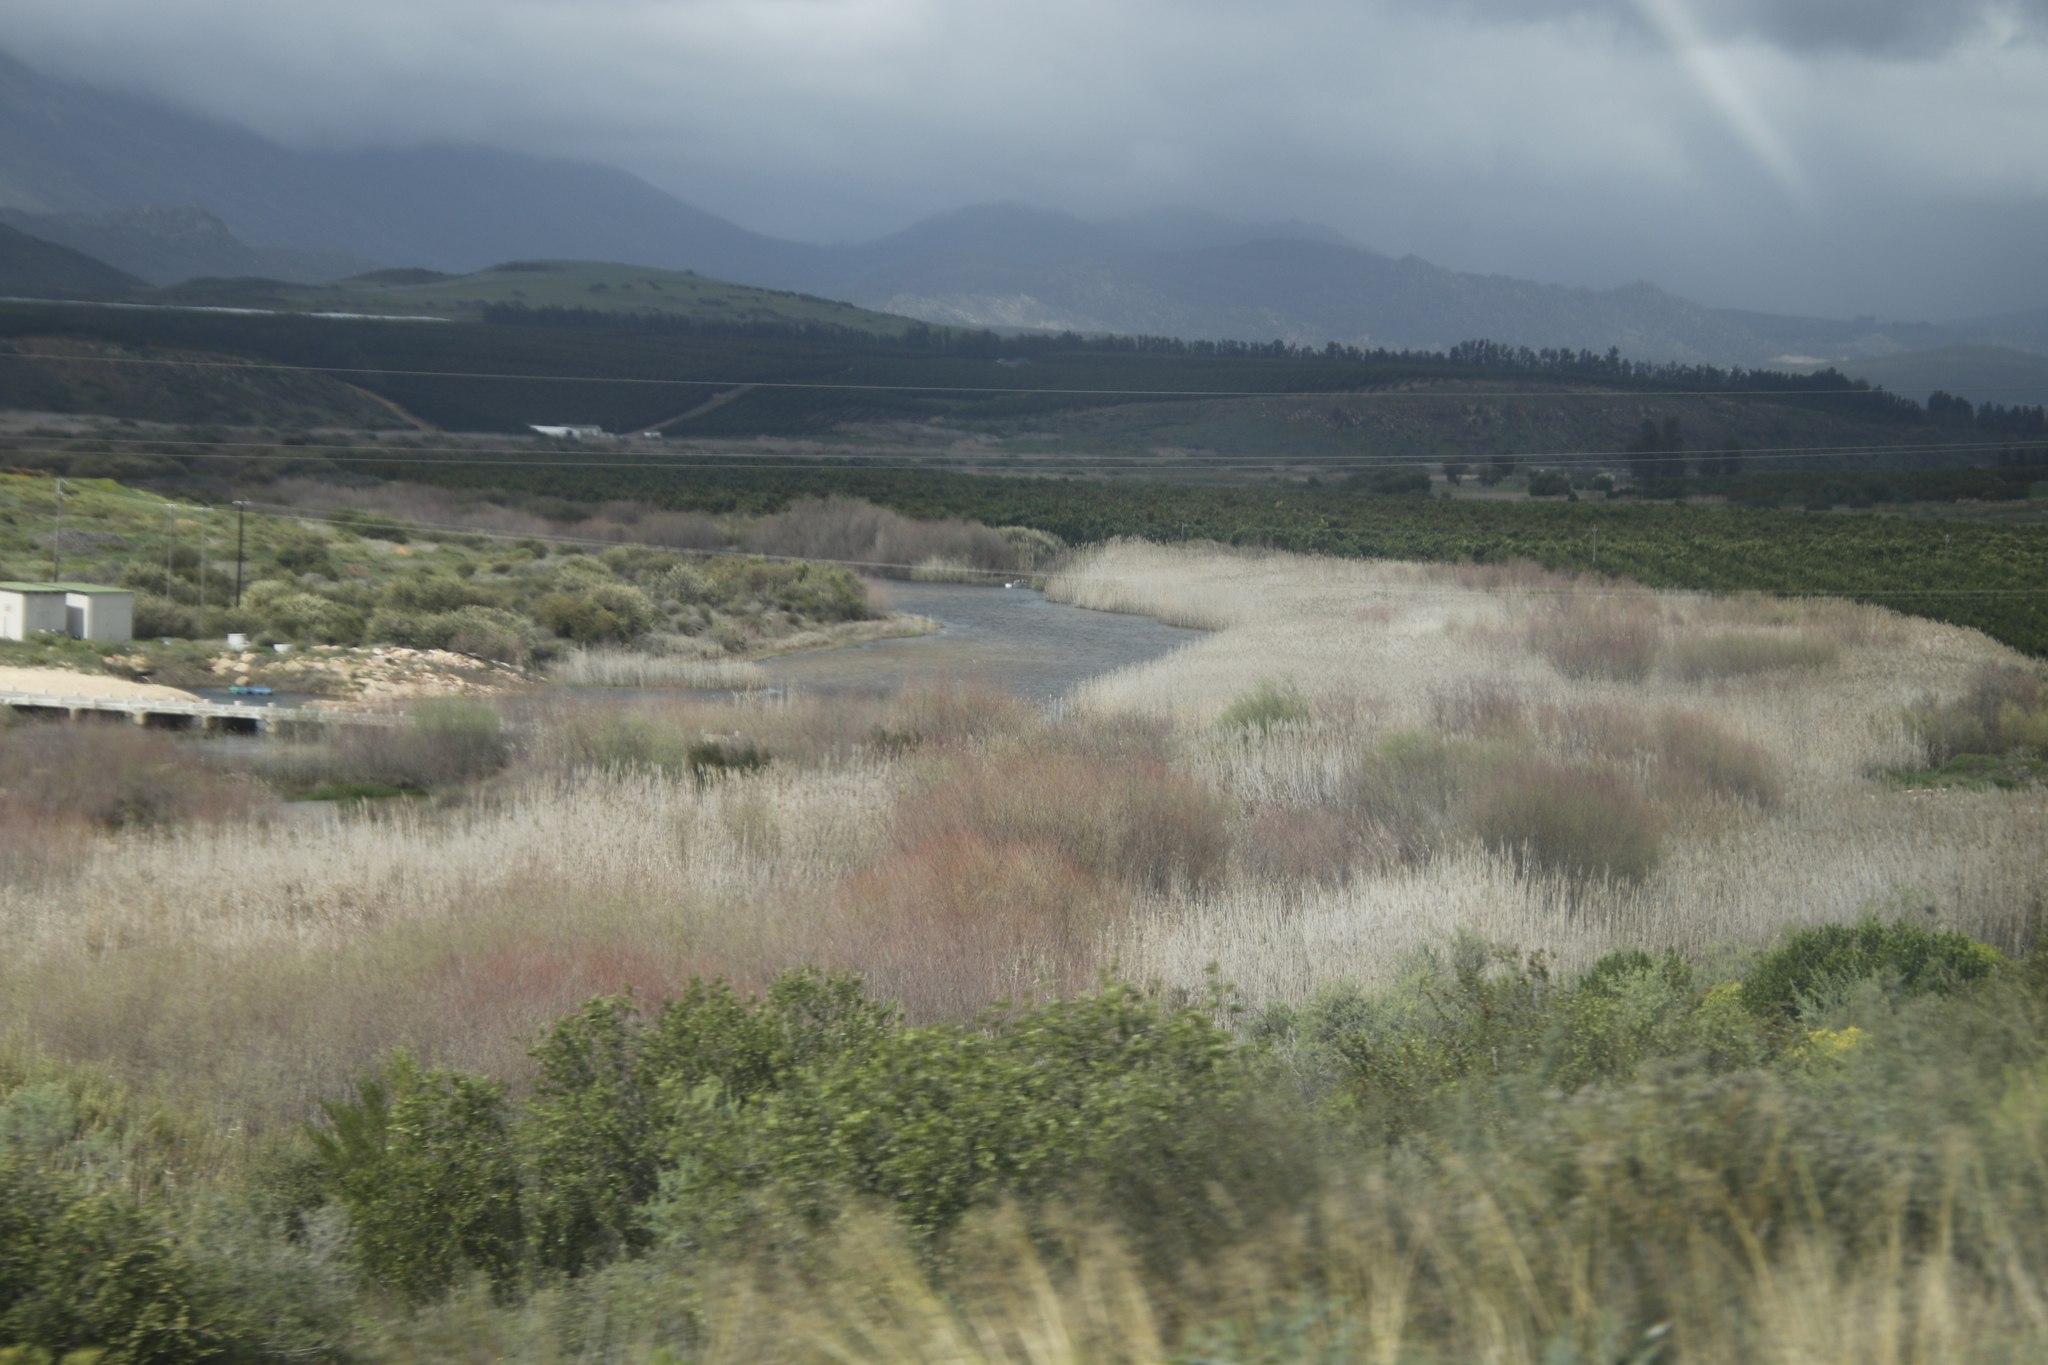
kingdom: Plantae
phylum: Tracheophyta
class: Liliopsida
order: Poales
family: Poaceae
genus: Phragmites
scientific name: Phragmites australis
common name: Common reed
